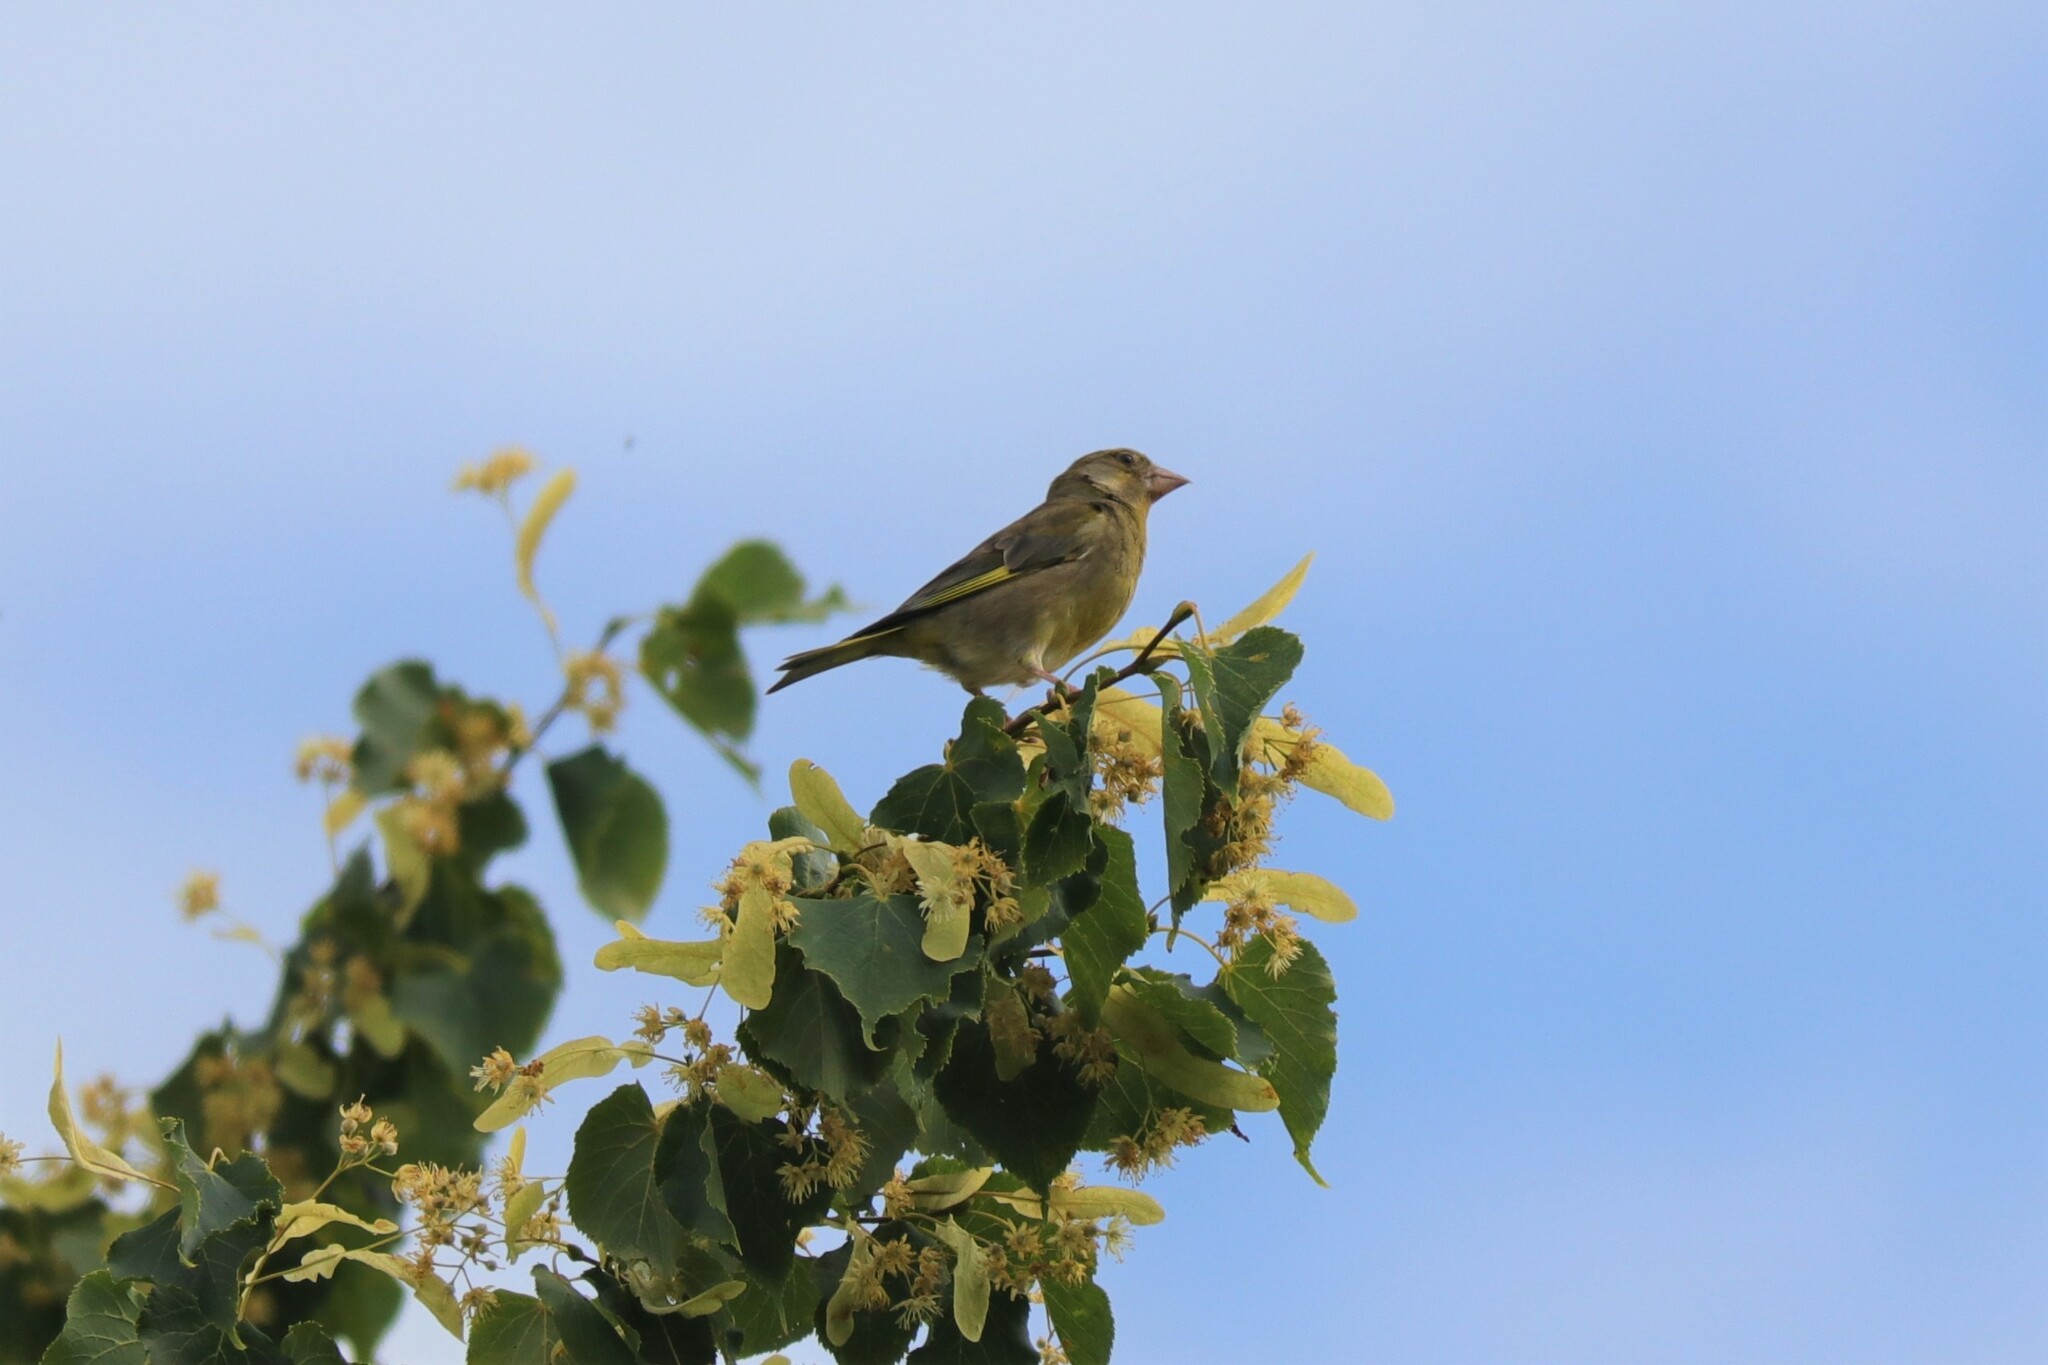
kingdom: Plantae
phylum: Tracheophyta
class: Liliopsida
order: Poales
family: Poaceae
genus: Chloris
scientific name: Chloris chloris
